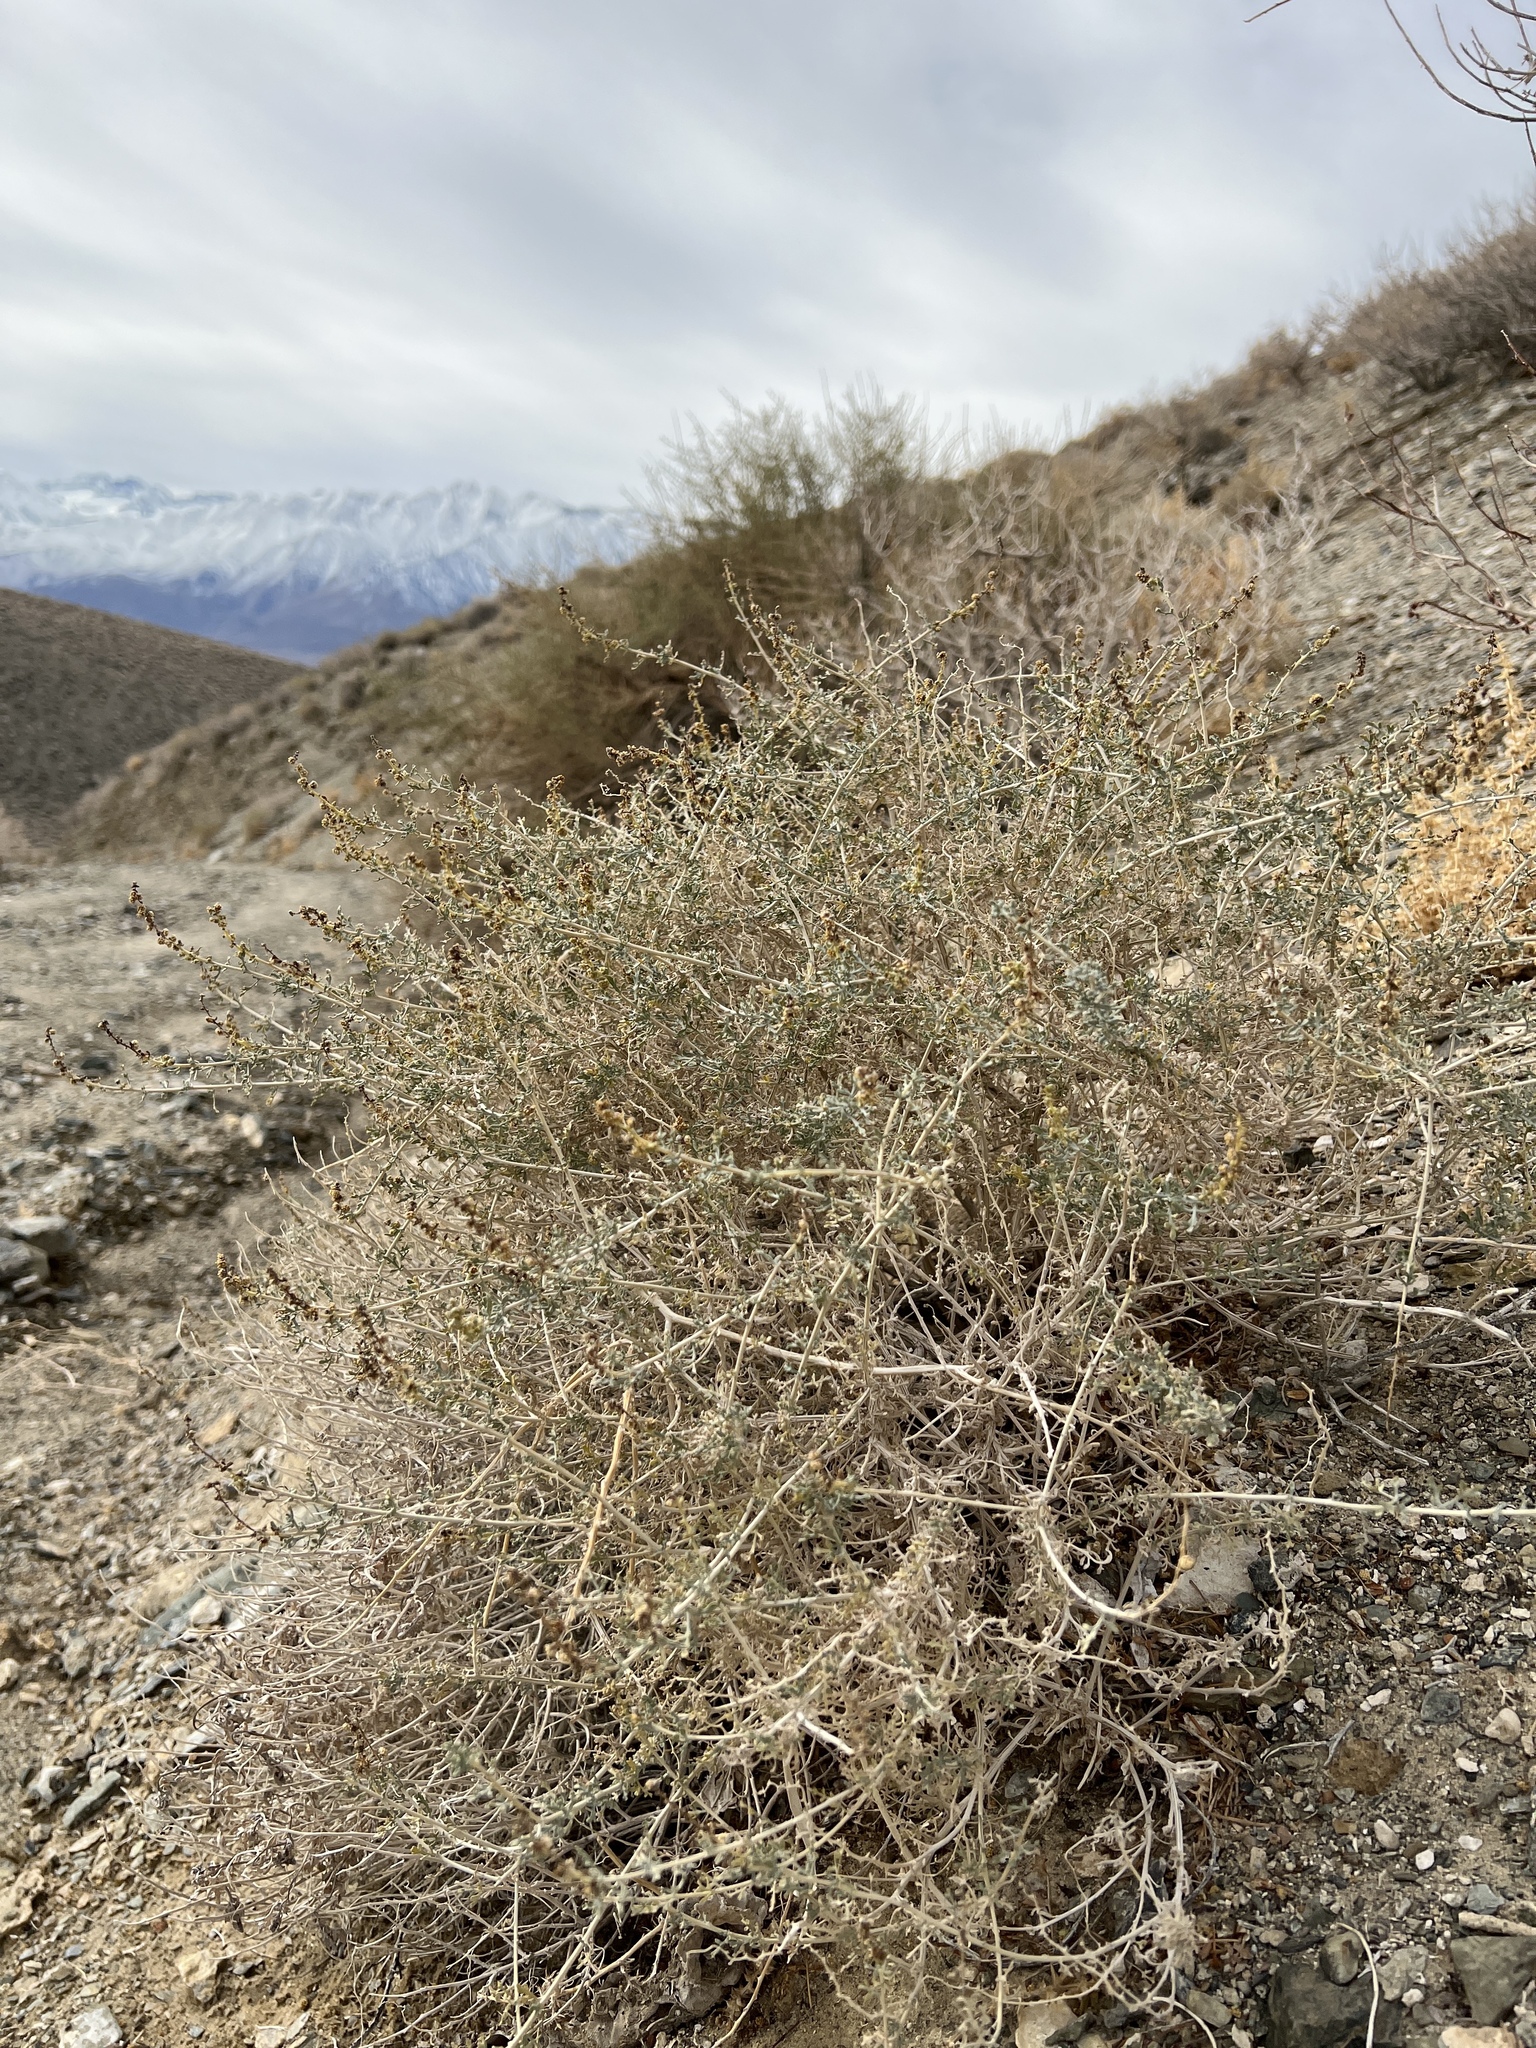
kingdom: Plantae
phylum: Tracheophyta
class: Magnoliopsida
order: Asterales
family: Asteraceae
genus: Ambrosia
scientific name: Ambrosia dumosa
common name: Bur-sage
